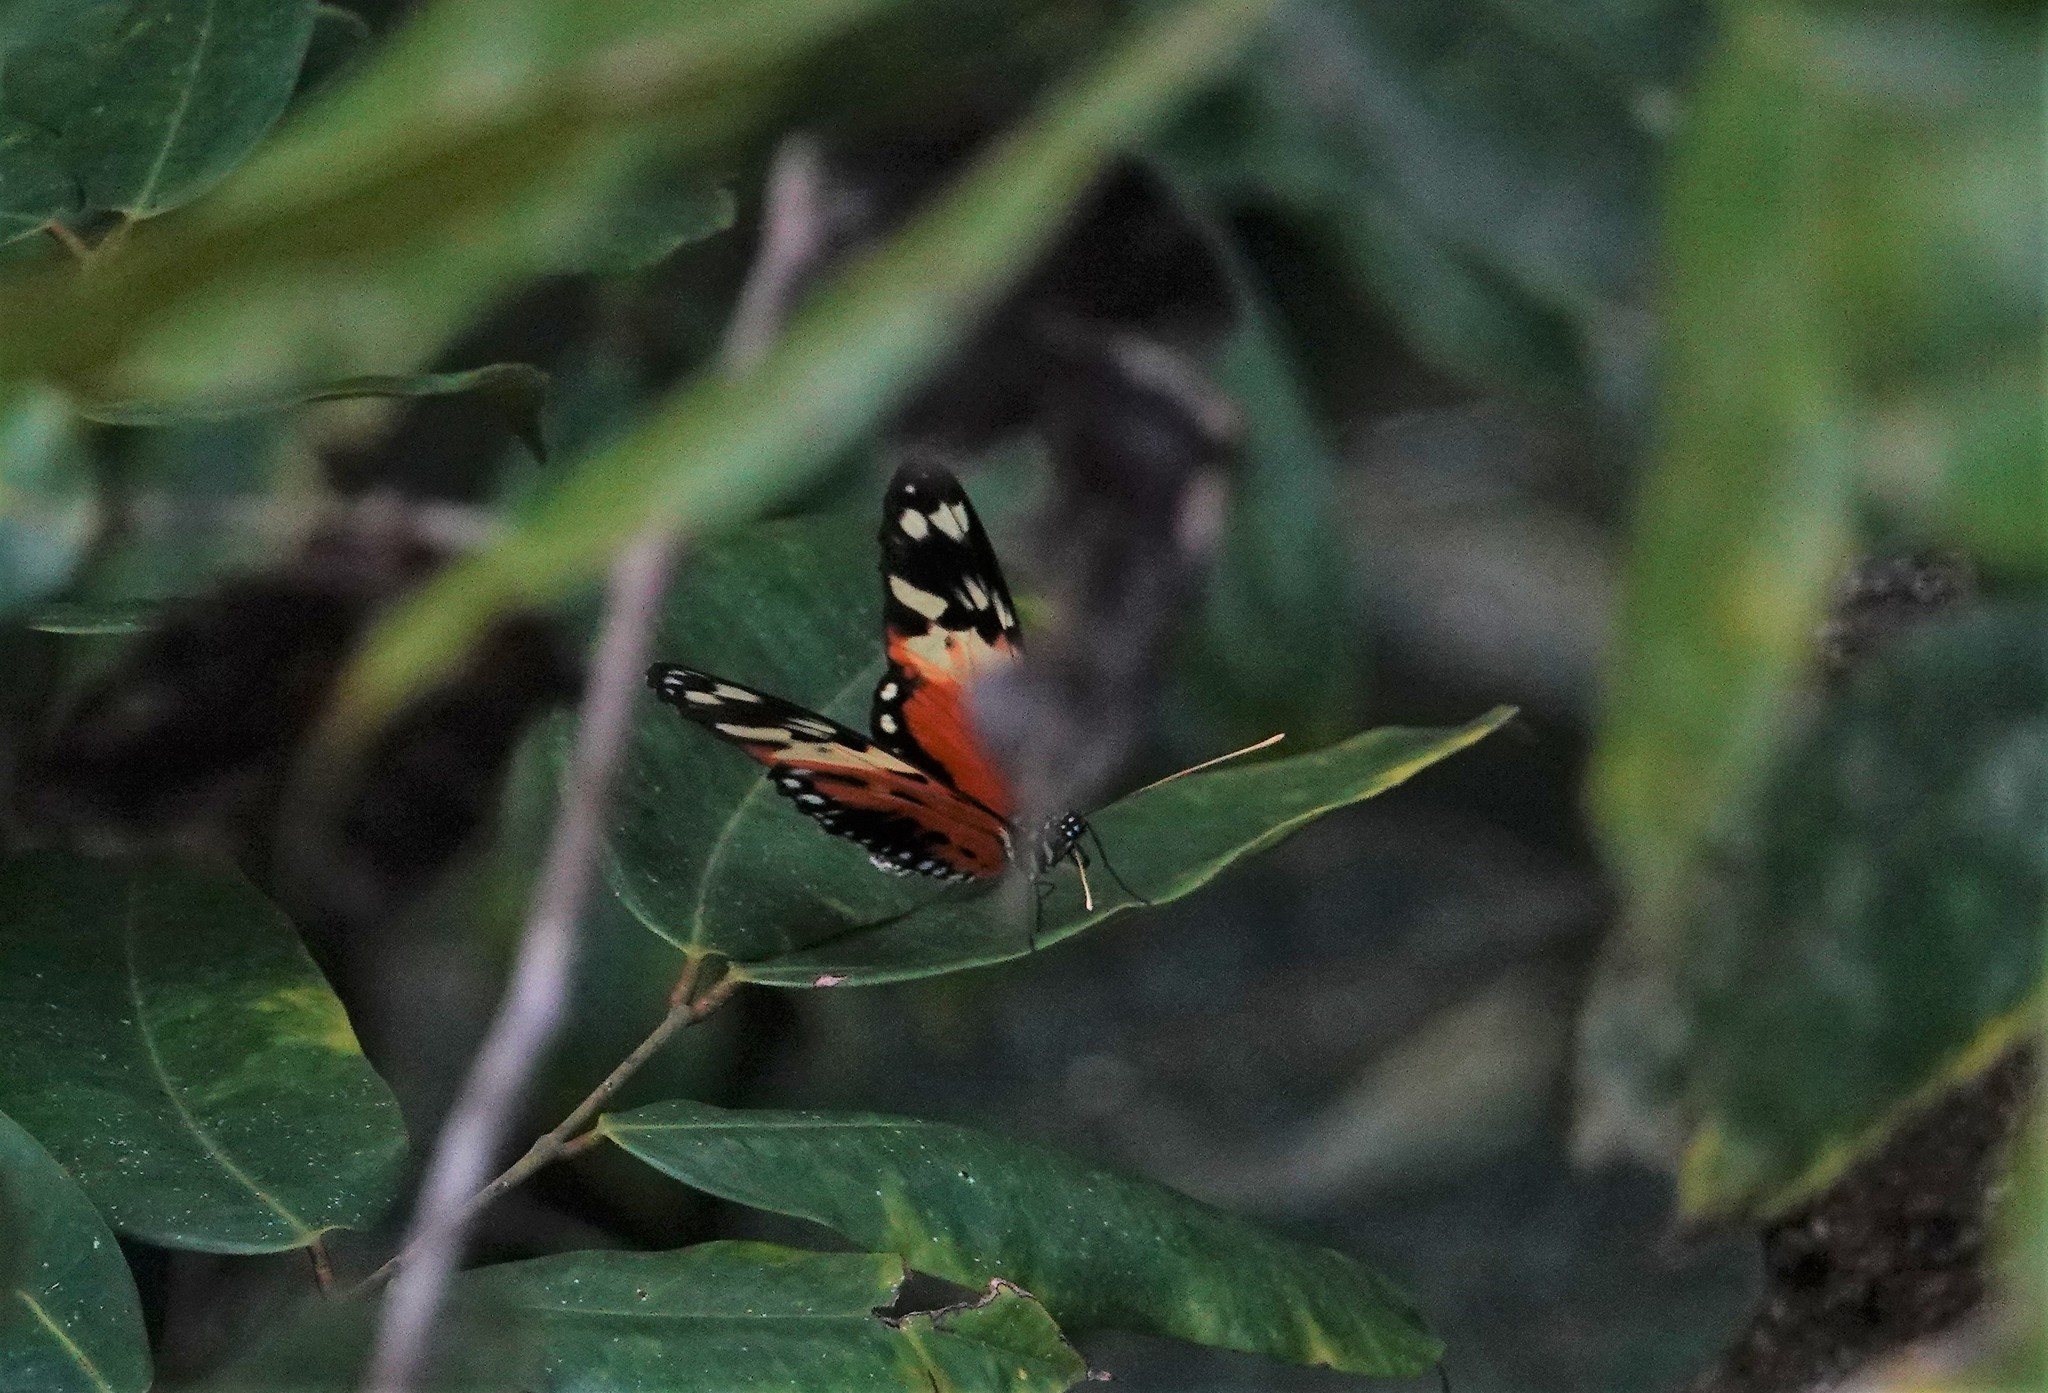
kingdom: Animalia
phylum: Arthropoda
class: Insecta
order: Lepidoptera
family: Nymphalidae
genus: Heliconius
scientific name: Heliconius numatus
